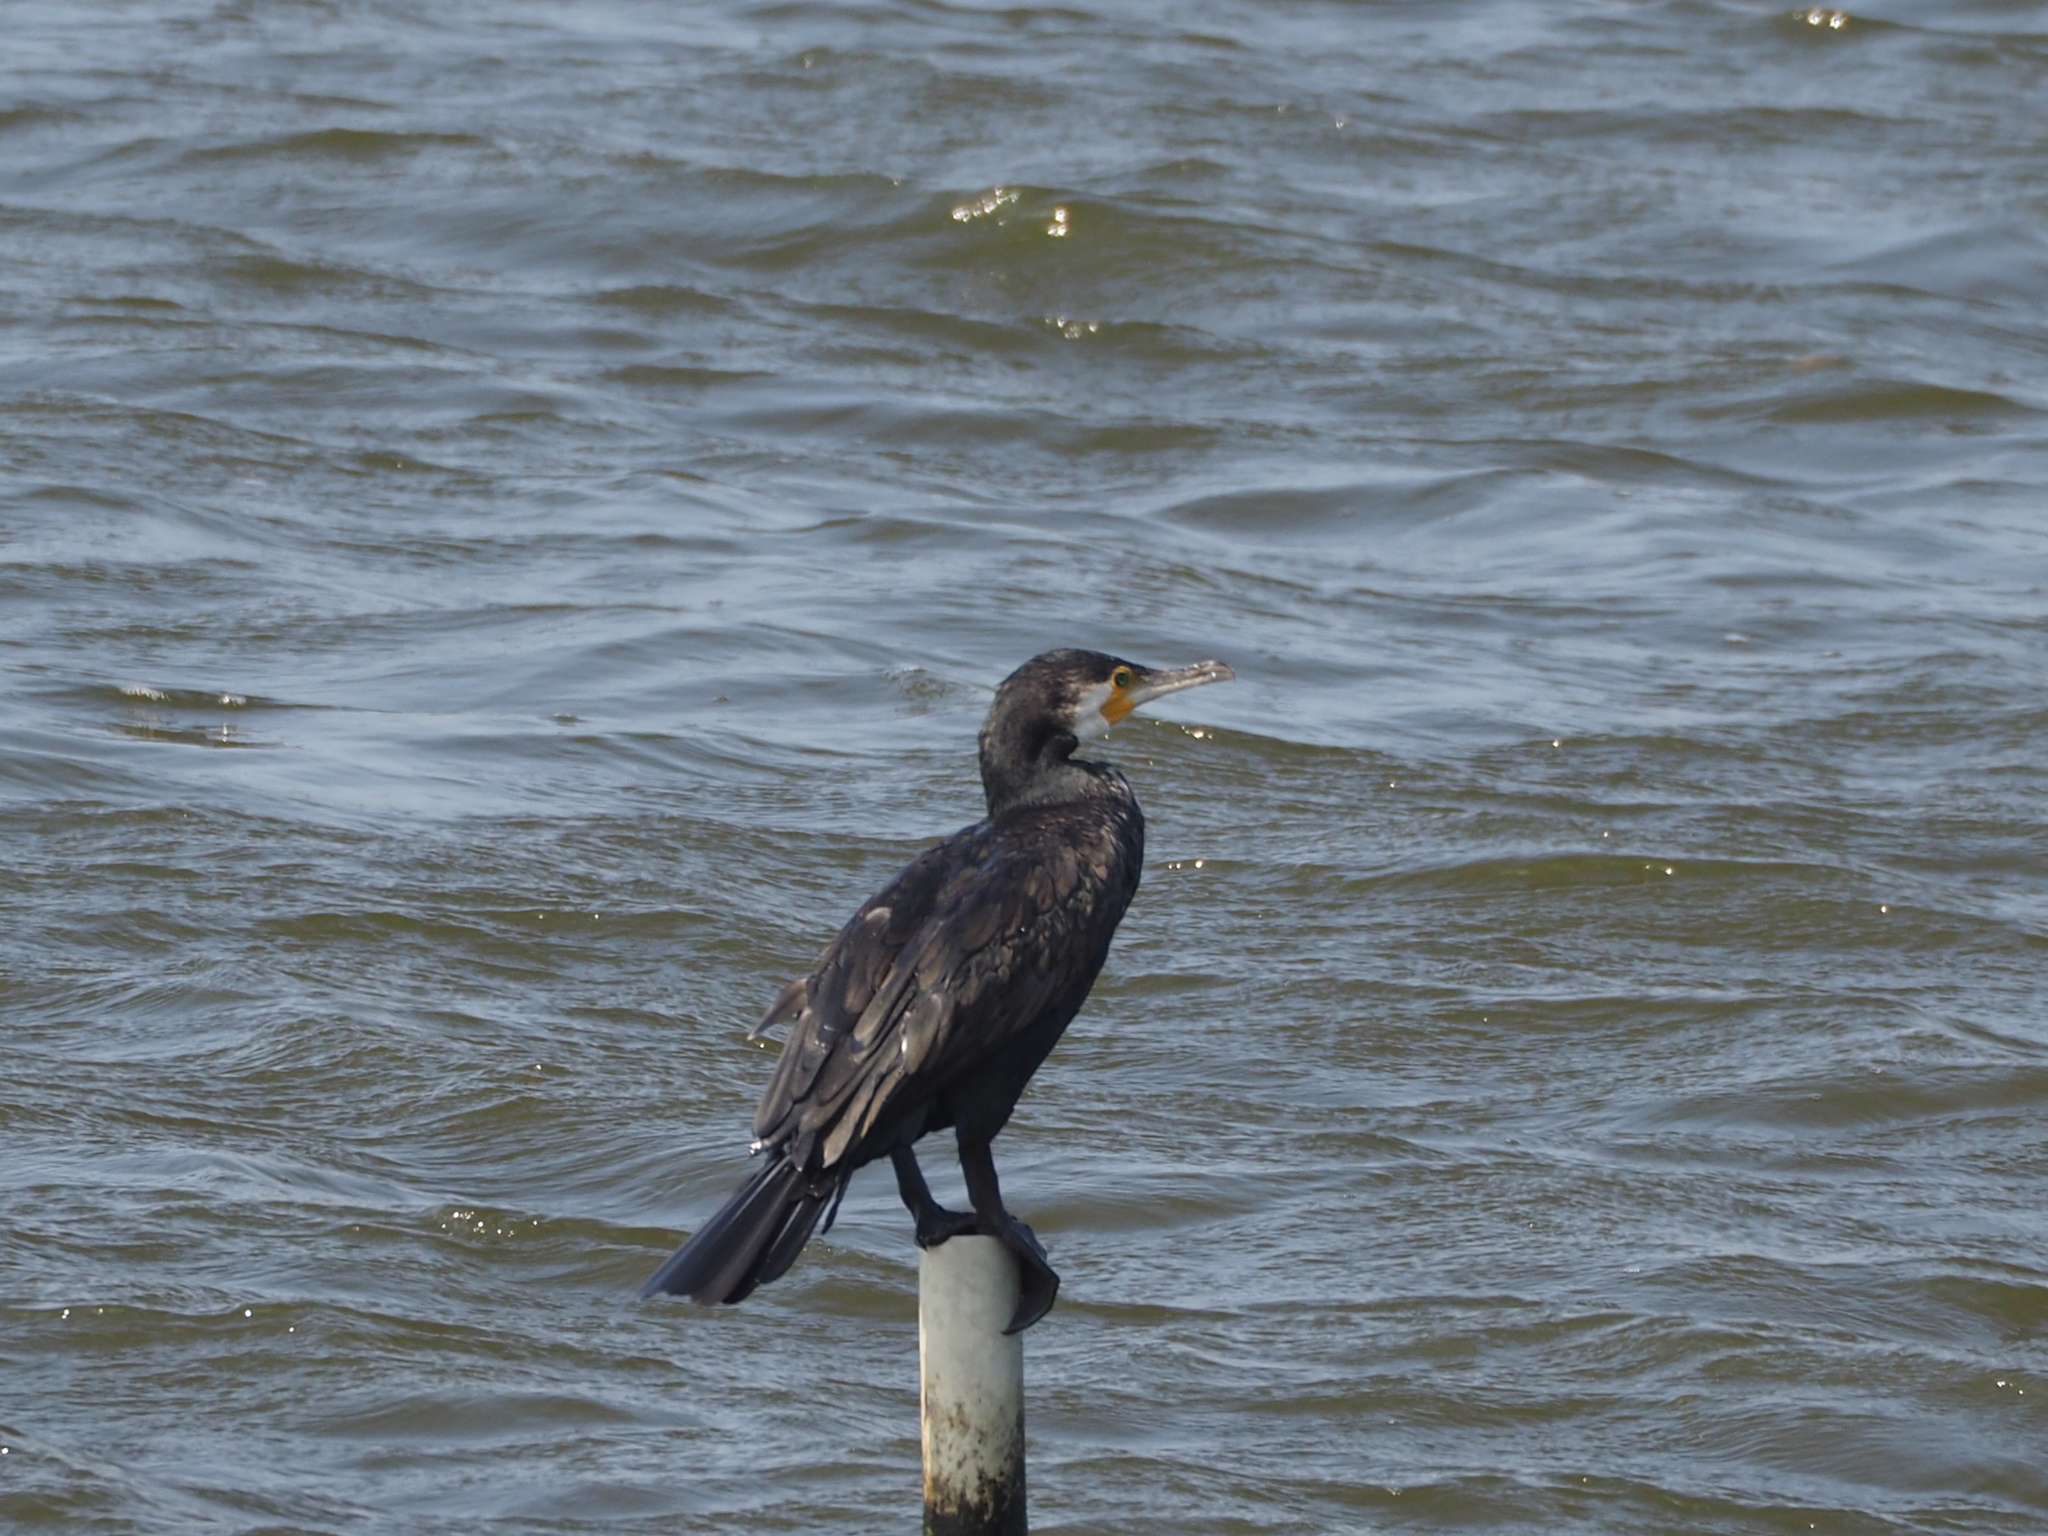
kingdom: Animalia
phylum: Chordata
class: Aves
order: Suliformes
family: Phalacrocoracidae
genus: Phalacrocorax
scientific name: Phalacrocorax carbo
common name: Great cormorant
